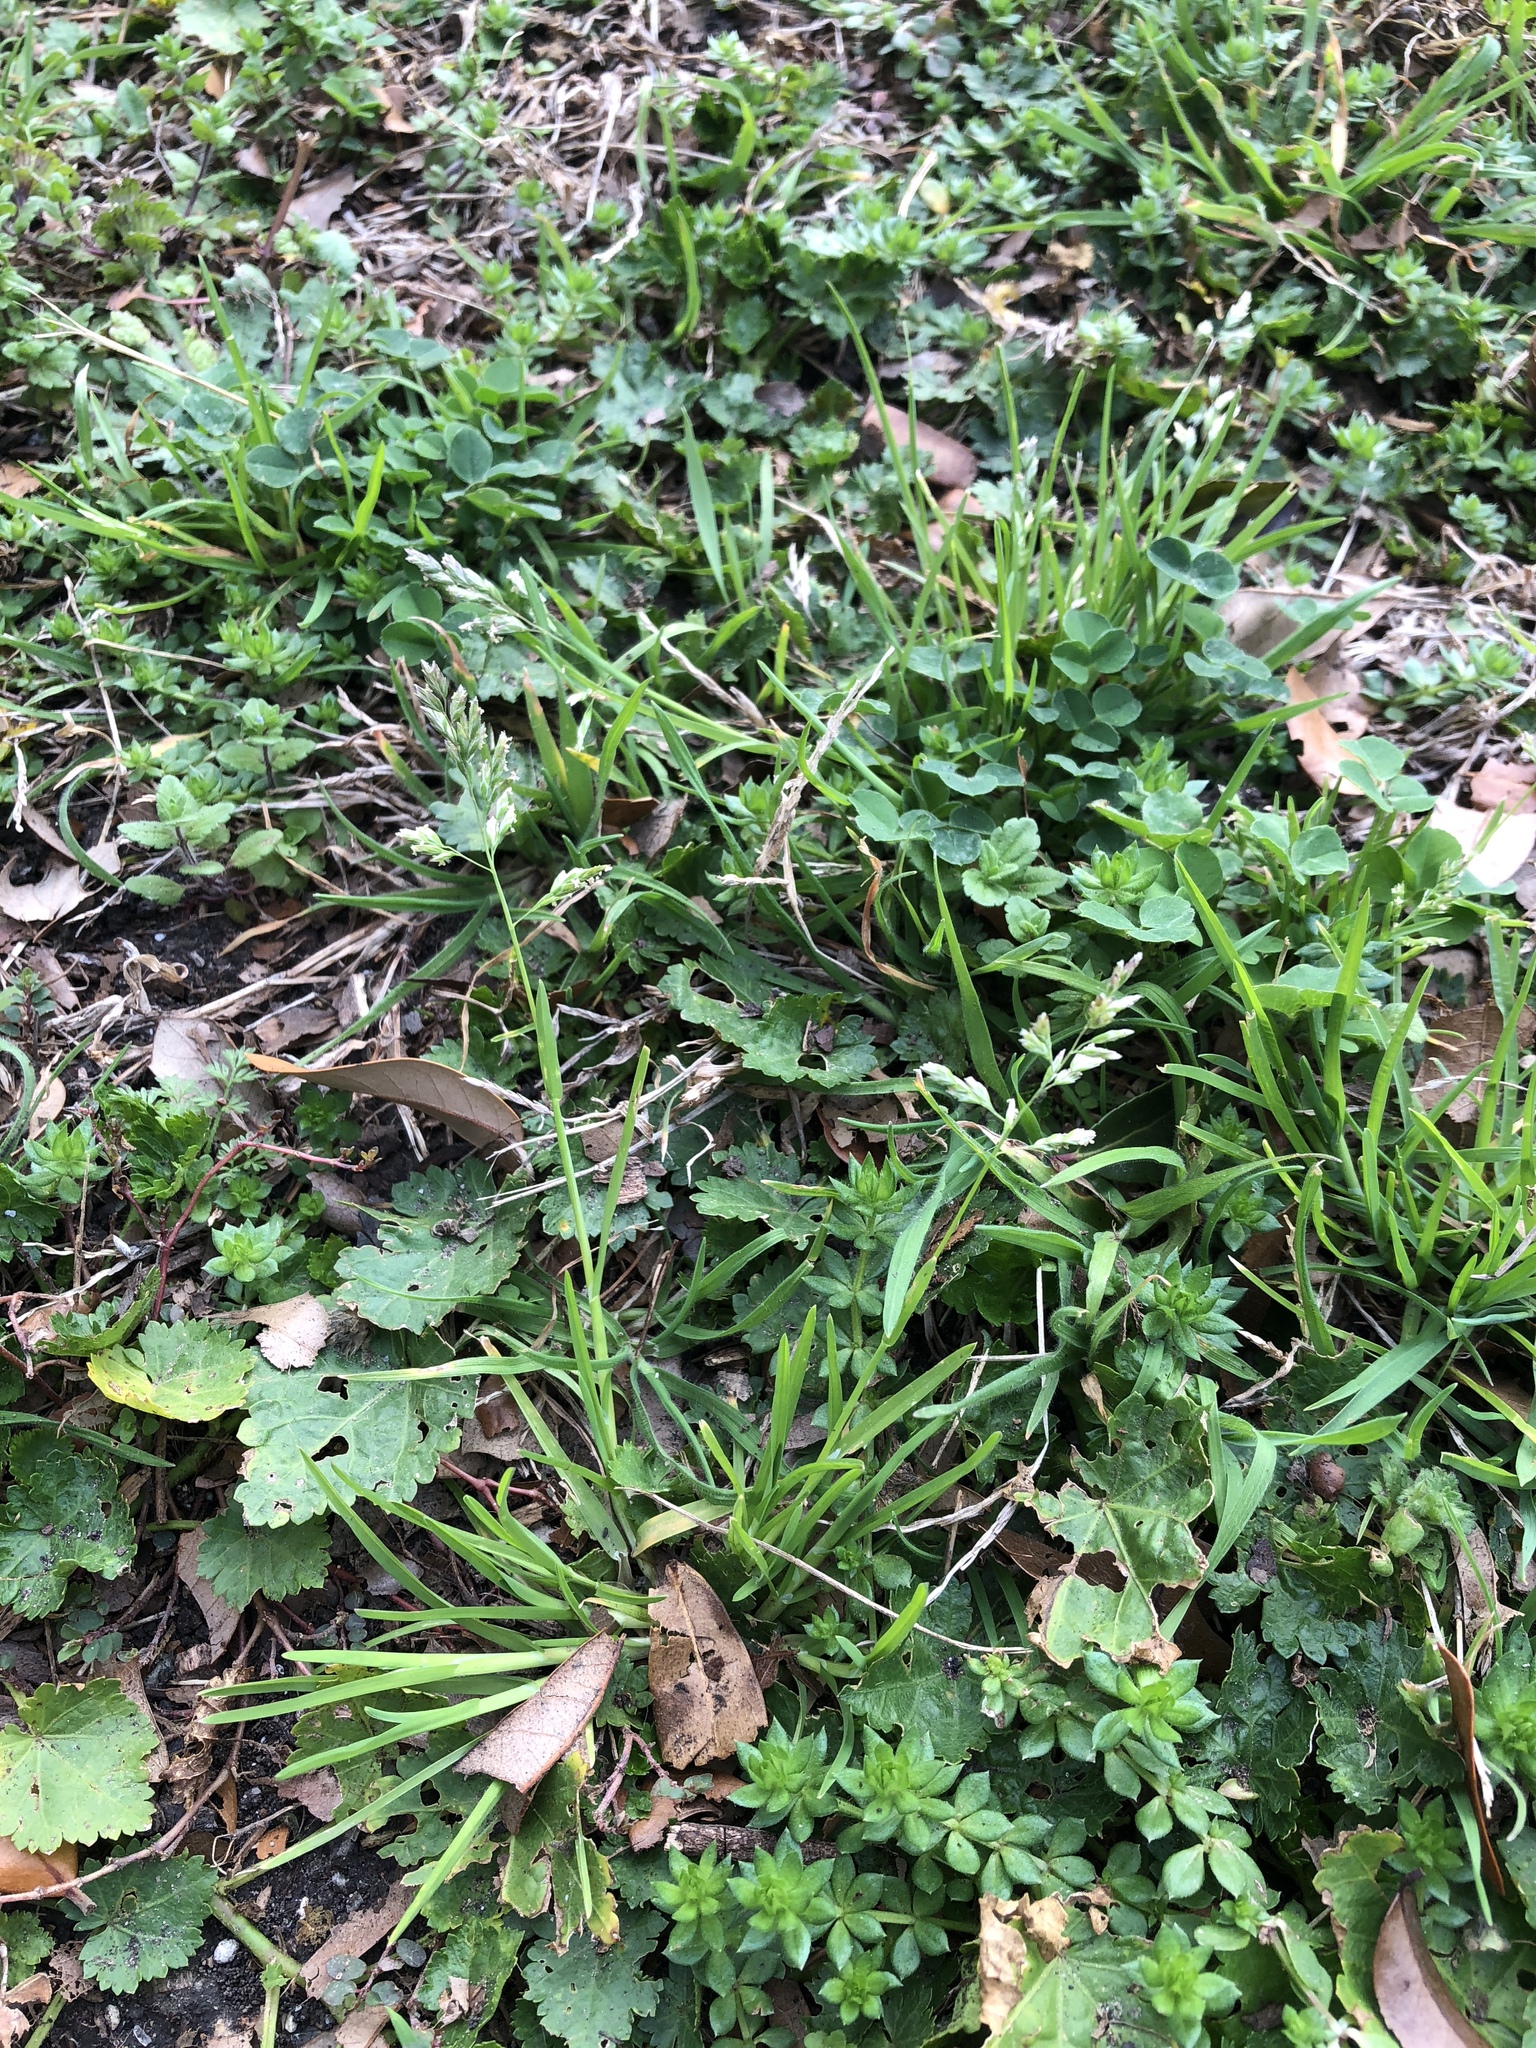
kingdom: Plantae
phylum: Tracheophyta
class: Liliopsida
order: Poales
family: Poaceae
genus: Poa
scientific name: Poa annua
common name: Annual bluegrass
